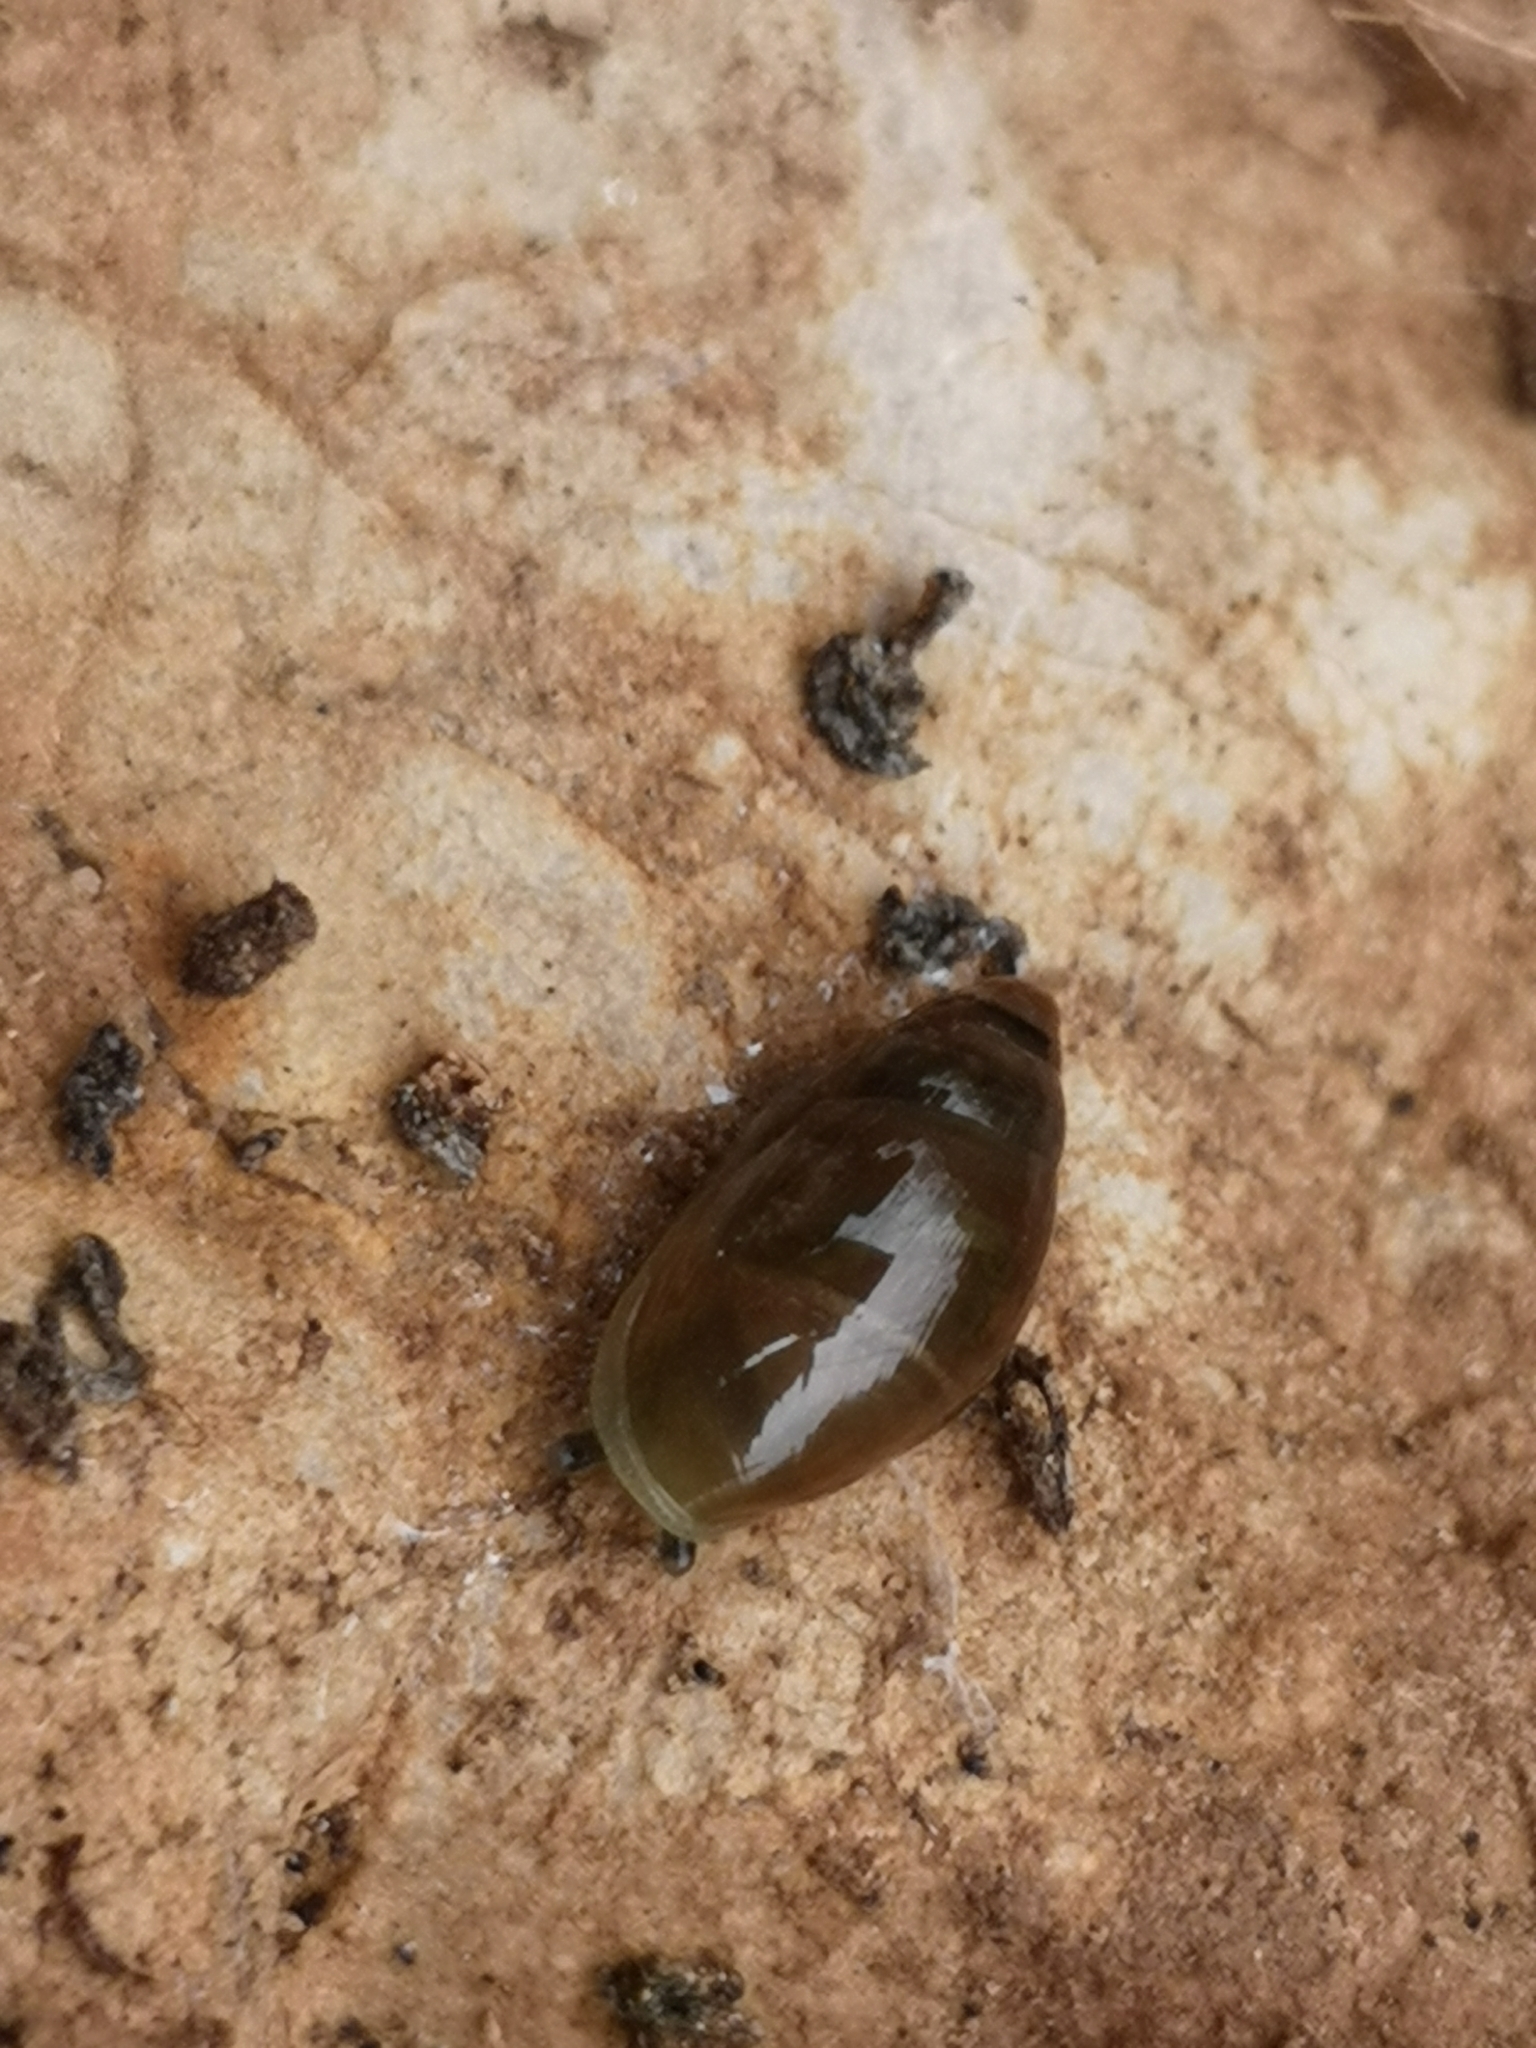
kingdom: Animalia
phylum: Mollusca
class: Gastropoda
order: Stylommatophora
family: Ferussaciidae
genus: Ferussacia
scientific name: Ferussacia folliculum
